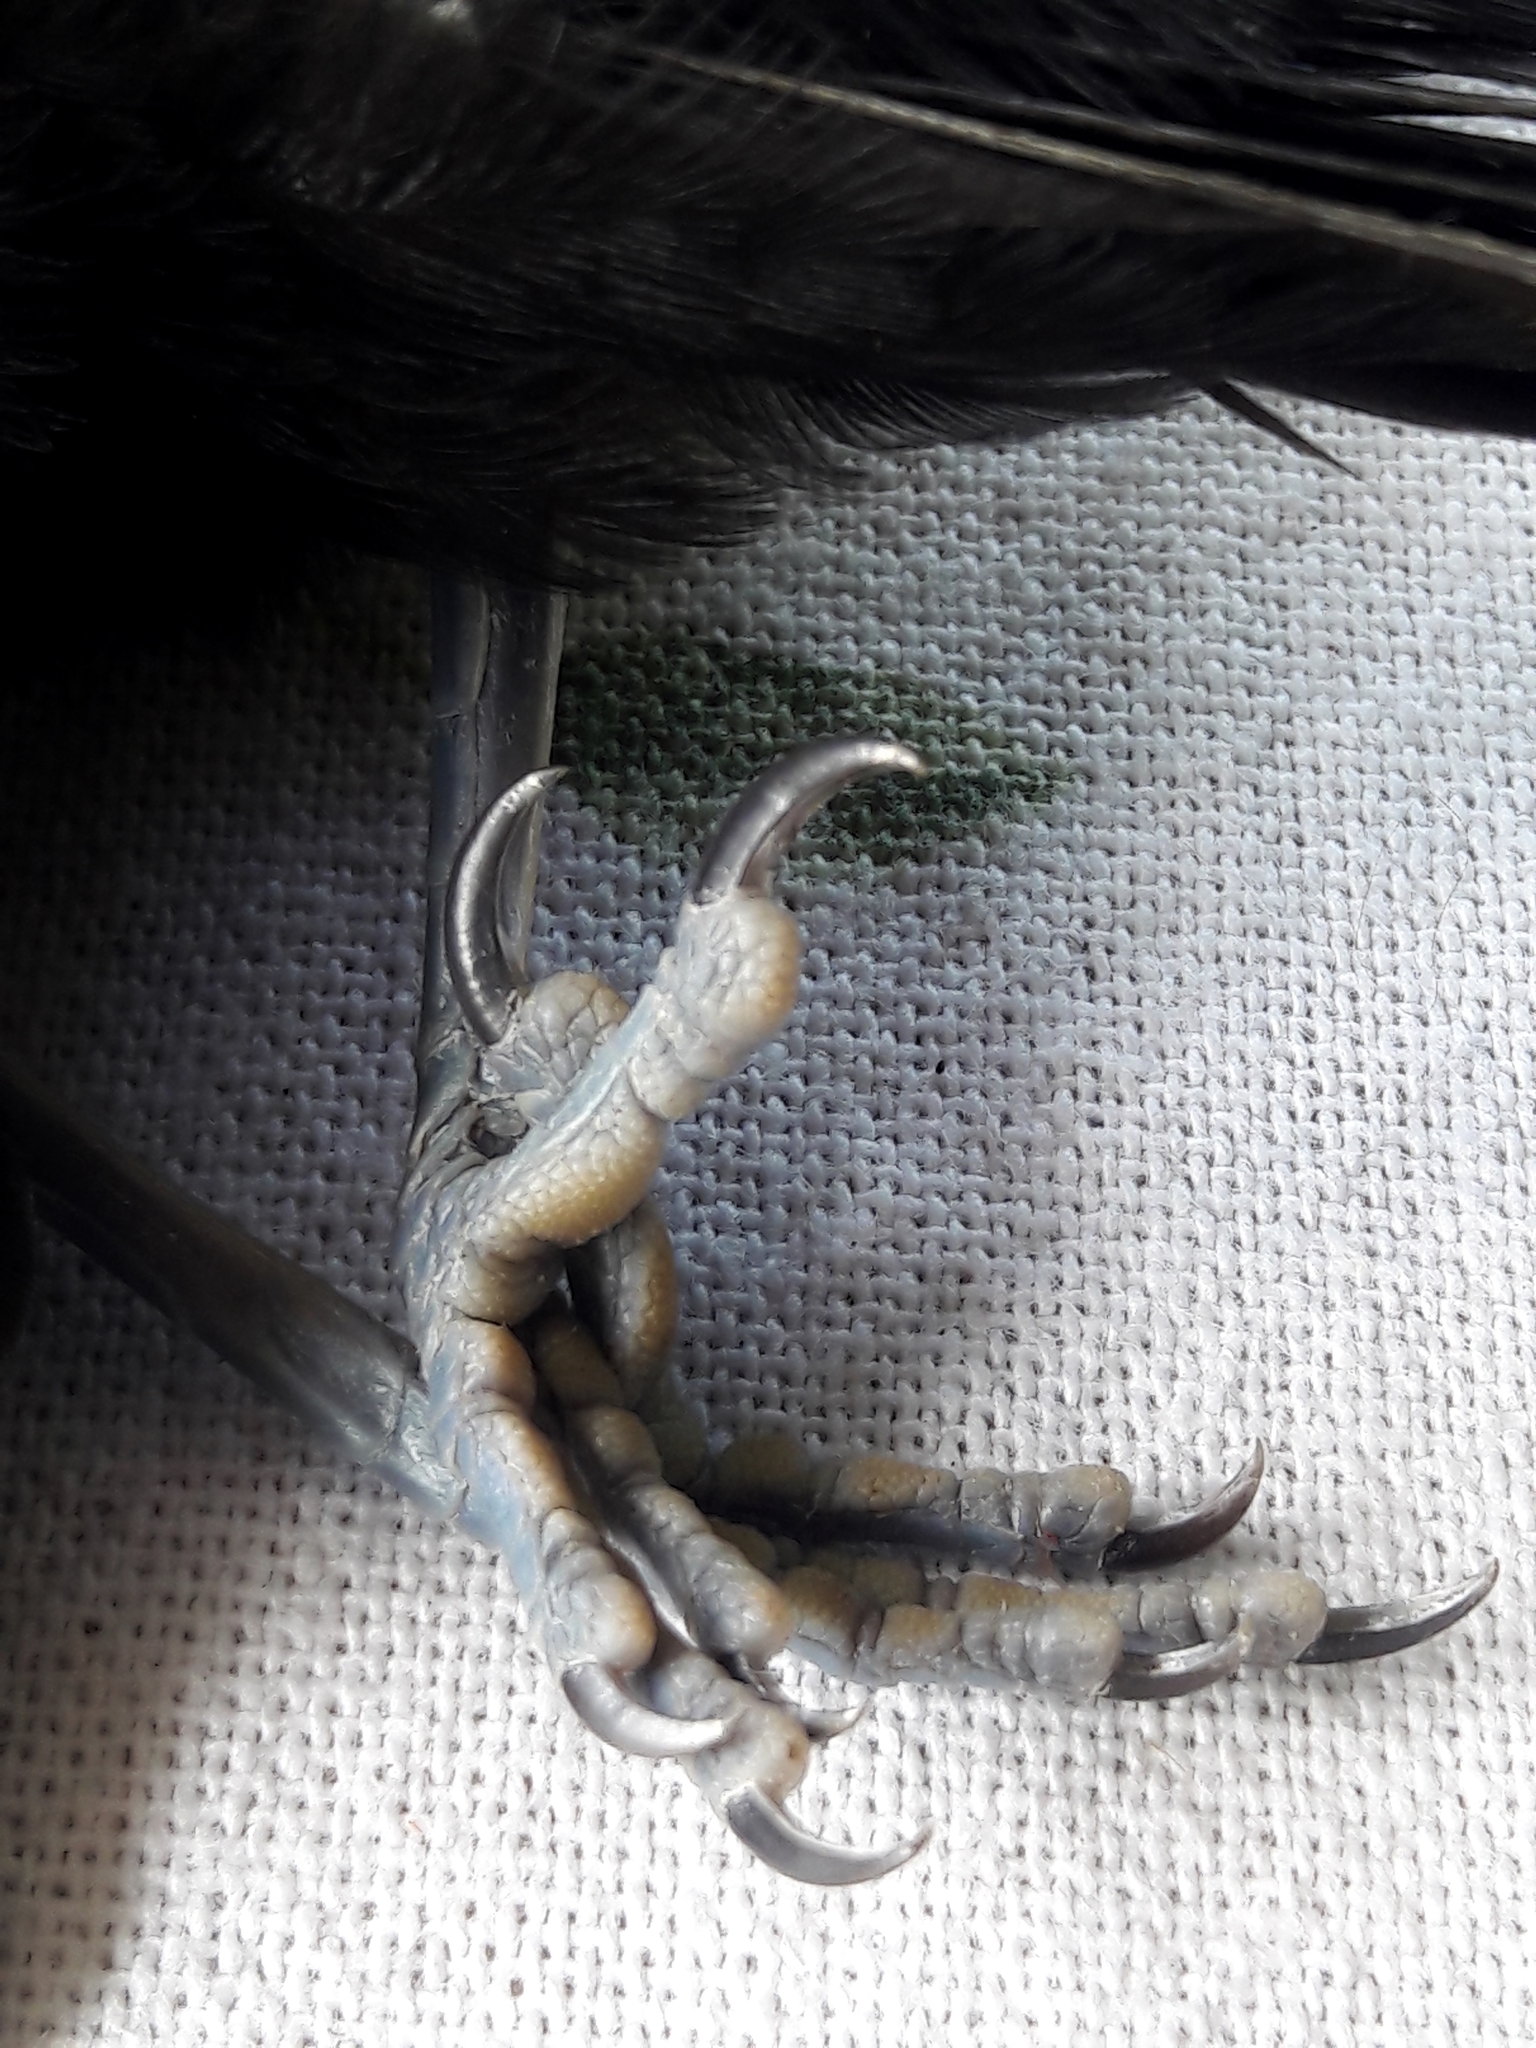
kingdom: Animalia
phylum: Chordata
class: Aves
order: Passeriformes
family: Icteridae
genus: Icterus
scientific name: Icterus cayanensis
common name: Epaulet oriole
